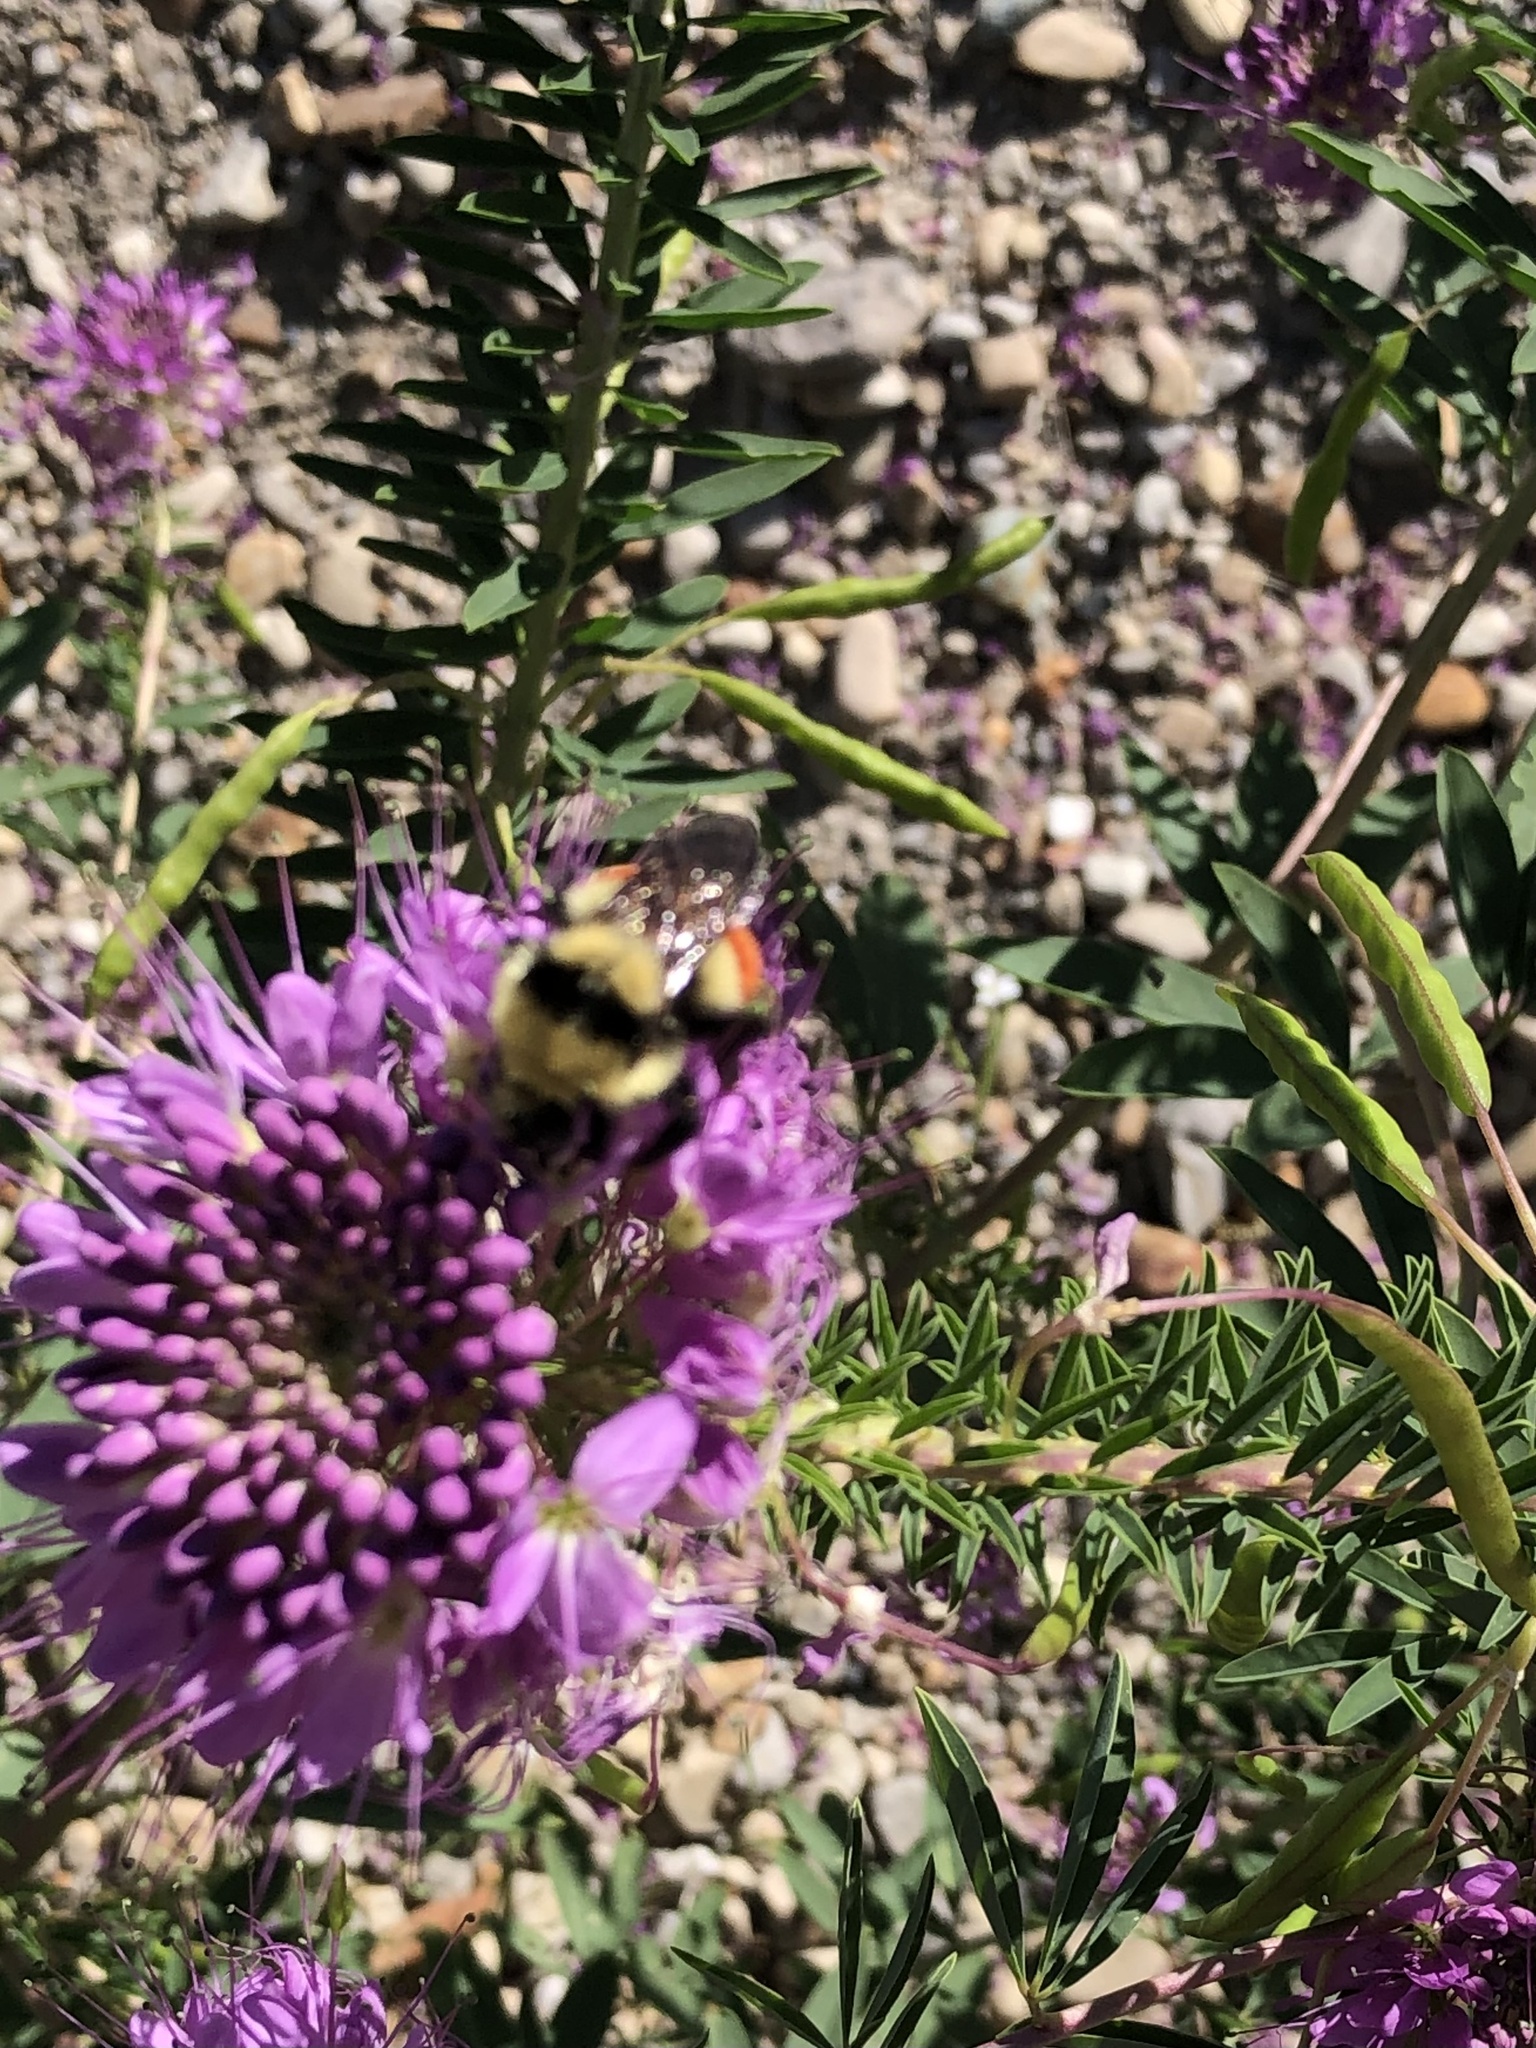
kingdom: Animalia
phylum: Arthropoda
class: Insecta
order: Hymenoptera
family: Apidae
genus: Bombus
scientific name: Bombus huntii
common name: Hunt bumble bee
